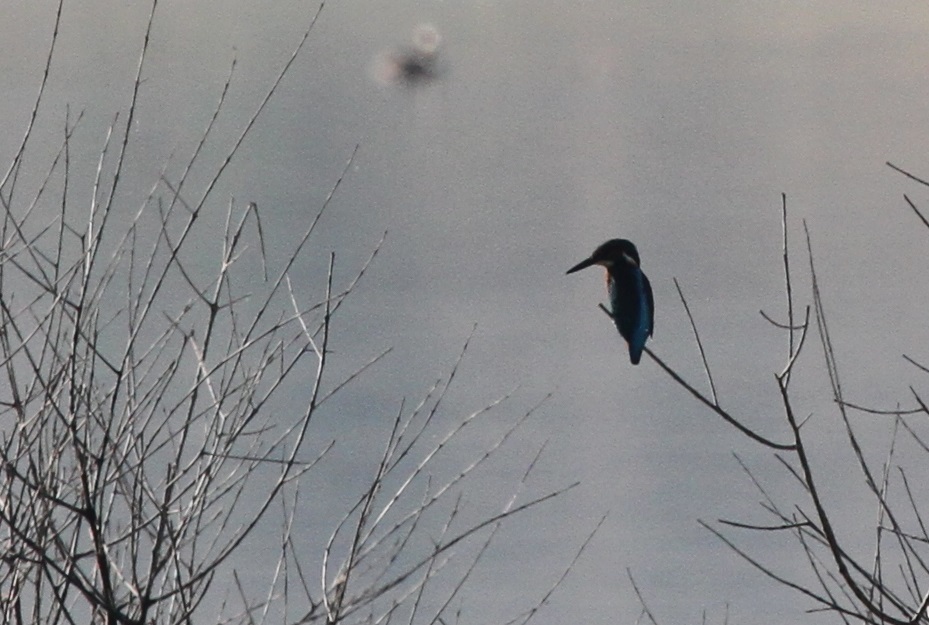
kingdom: Animalia
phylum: Chordata
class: Aves
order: Coraciiformes
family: Alcedinidae
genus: Alcedo
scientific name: Alcedo atthis
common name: Common kingfisher
